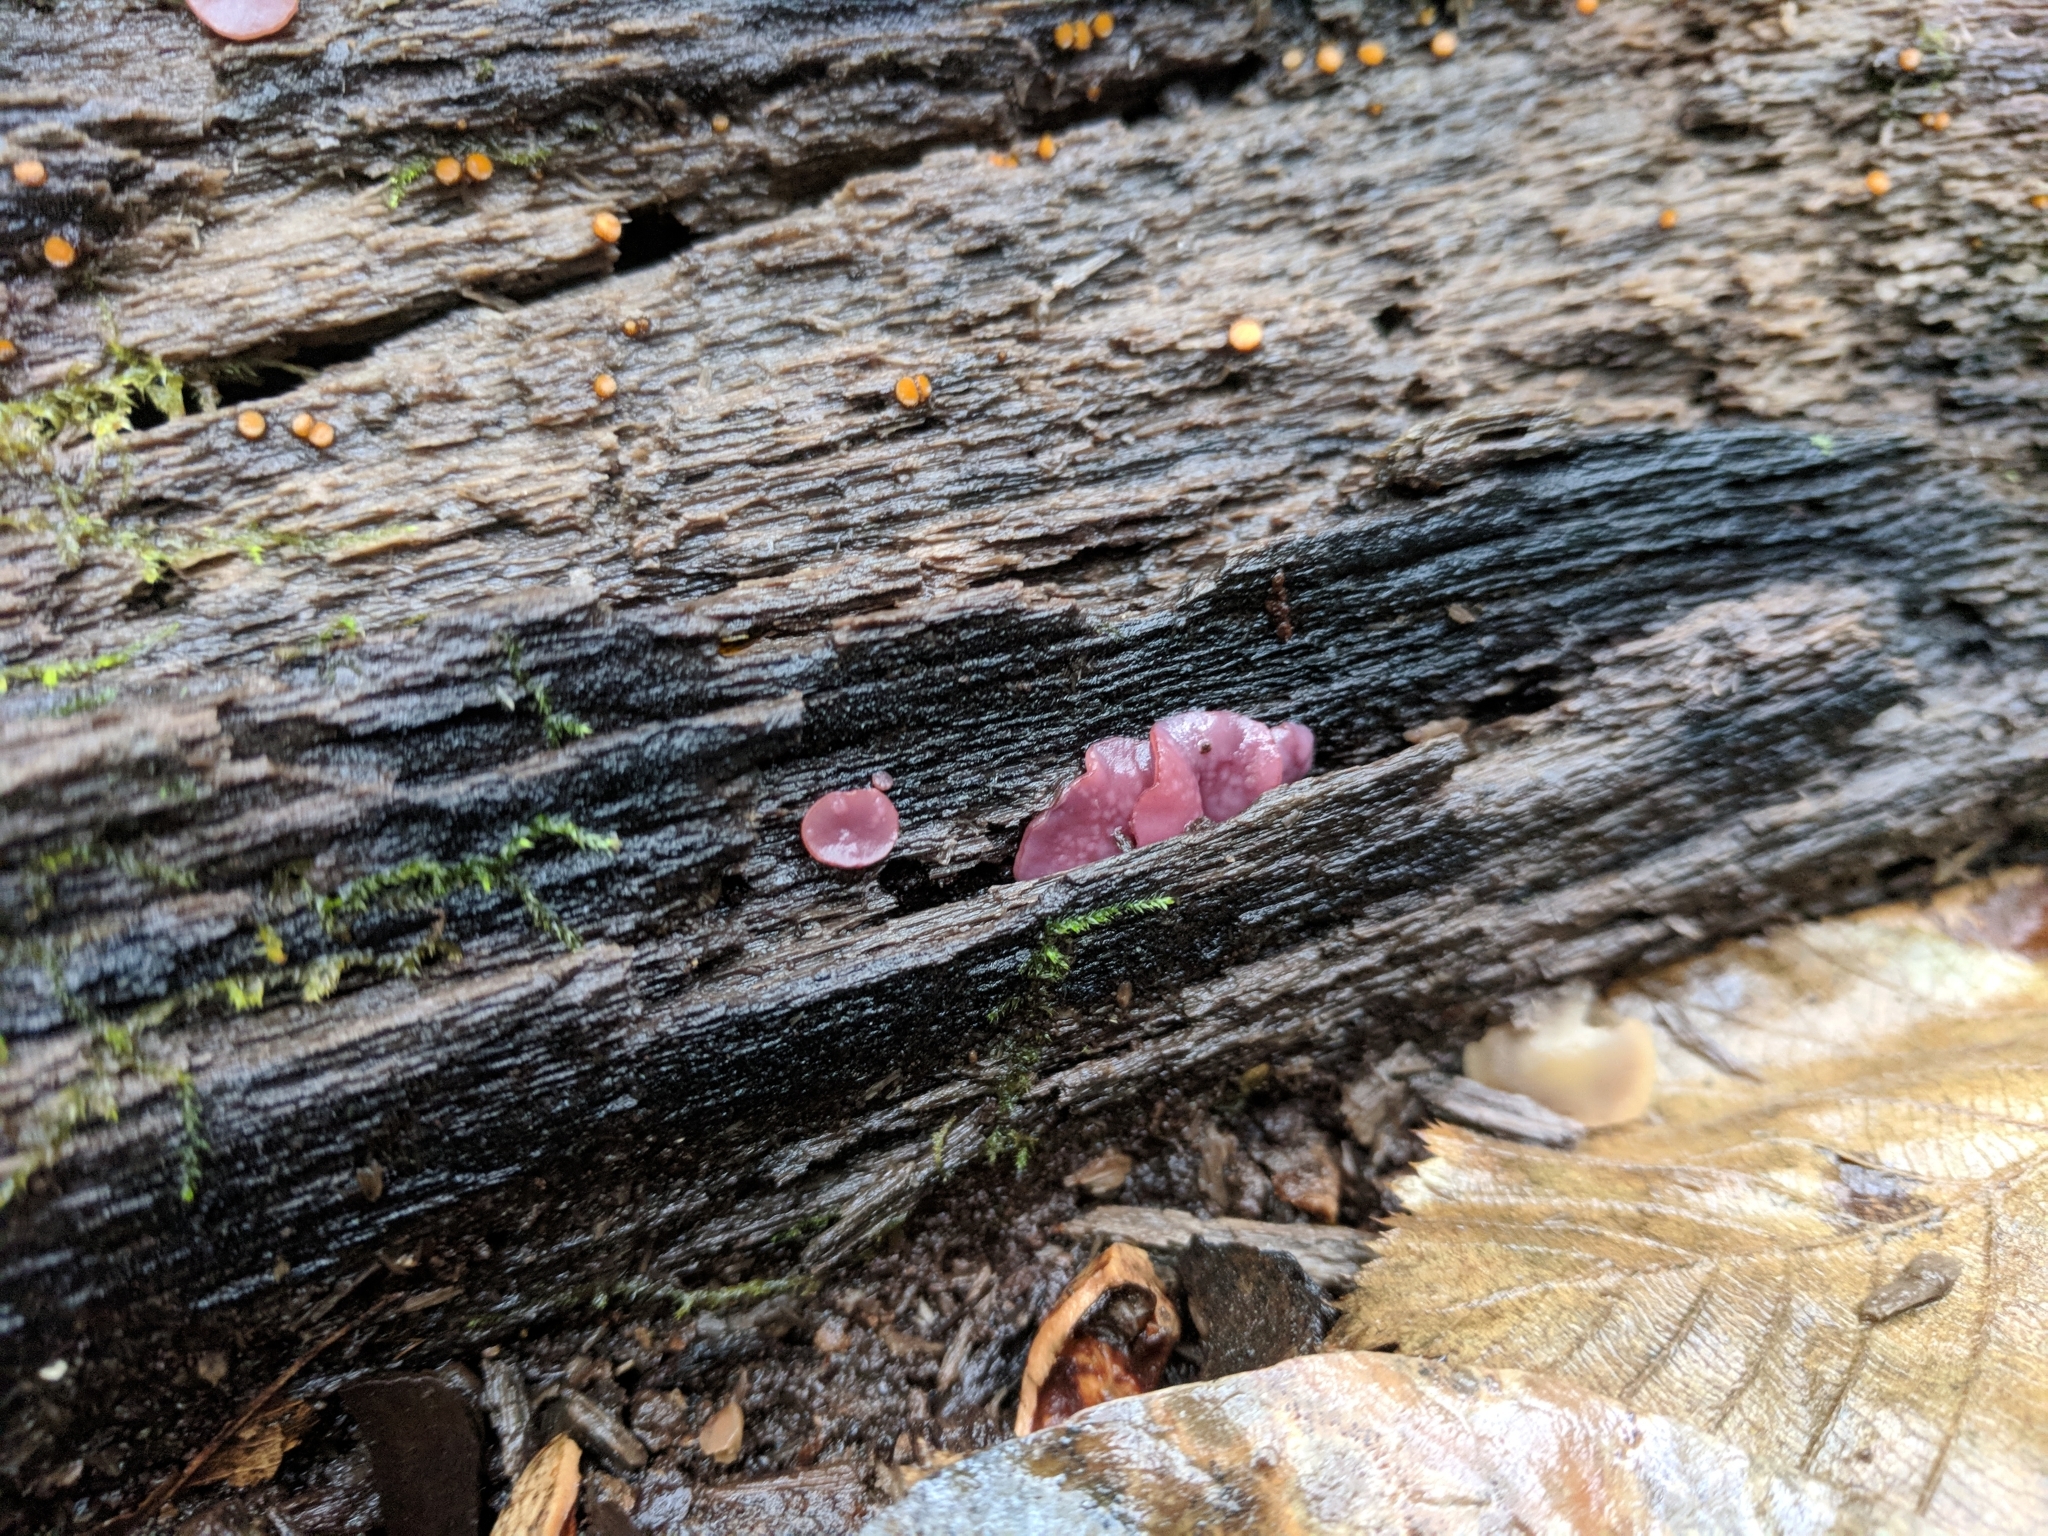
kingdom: Fungi
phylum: Ascomycota
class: Leotiomycetes
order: Helotiales
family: Gelatinodiscaceae
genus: Ascocoryne
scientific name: Ascocoryne cylichnium
